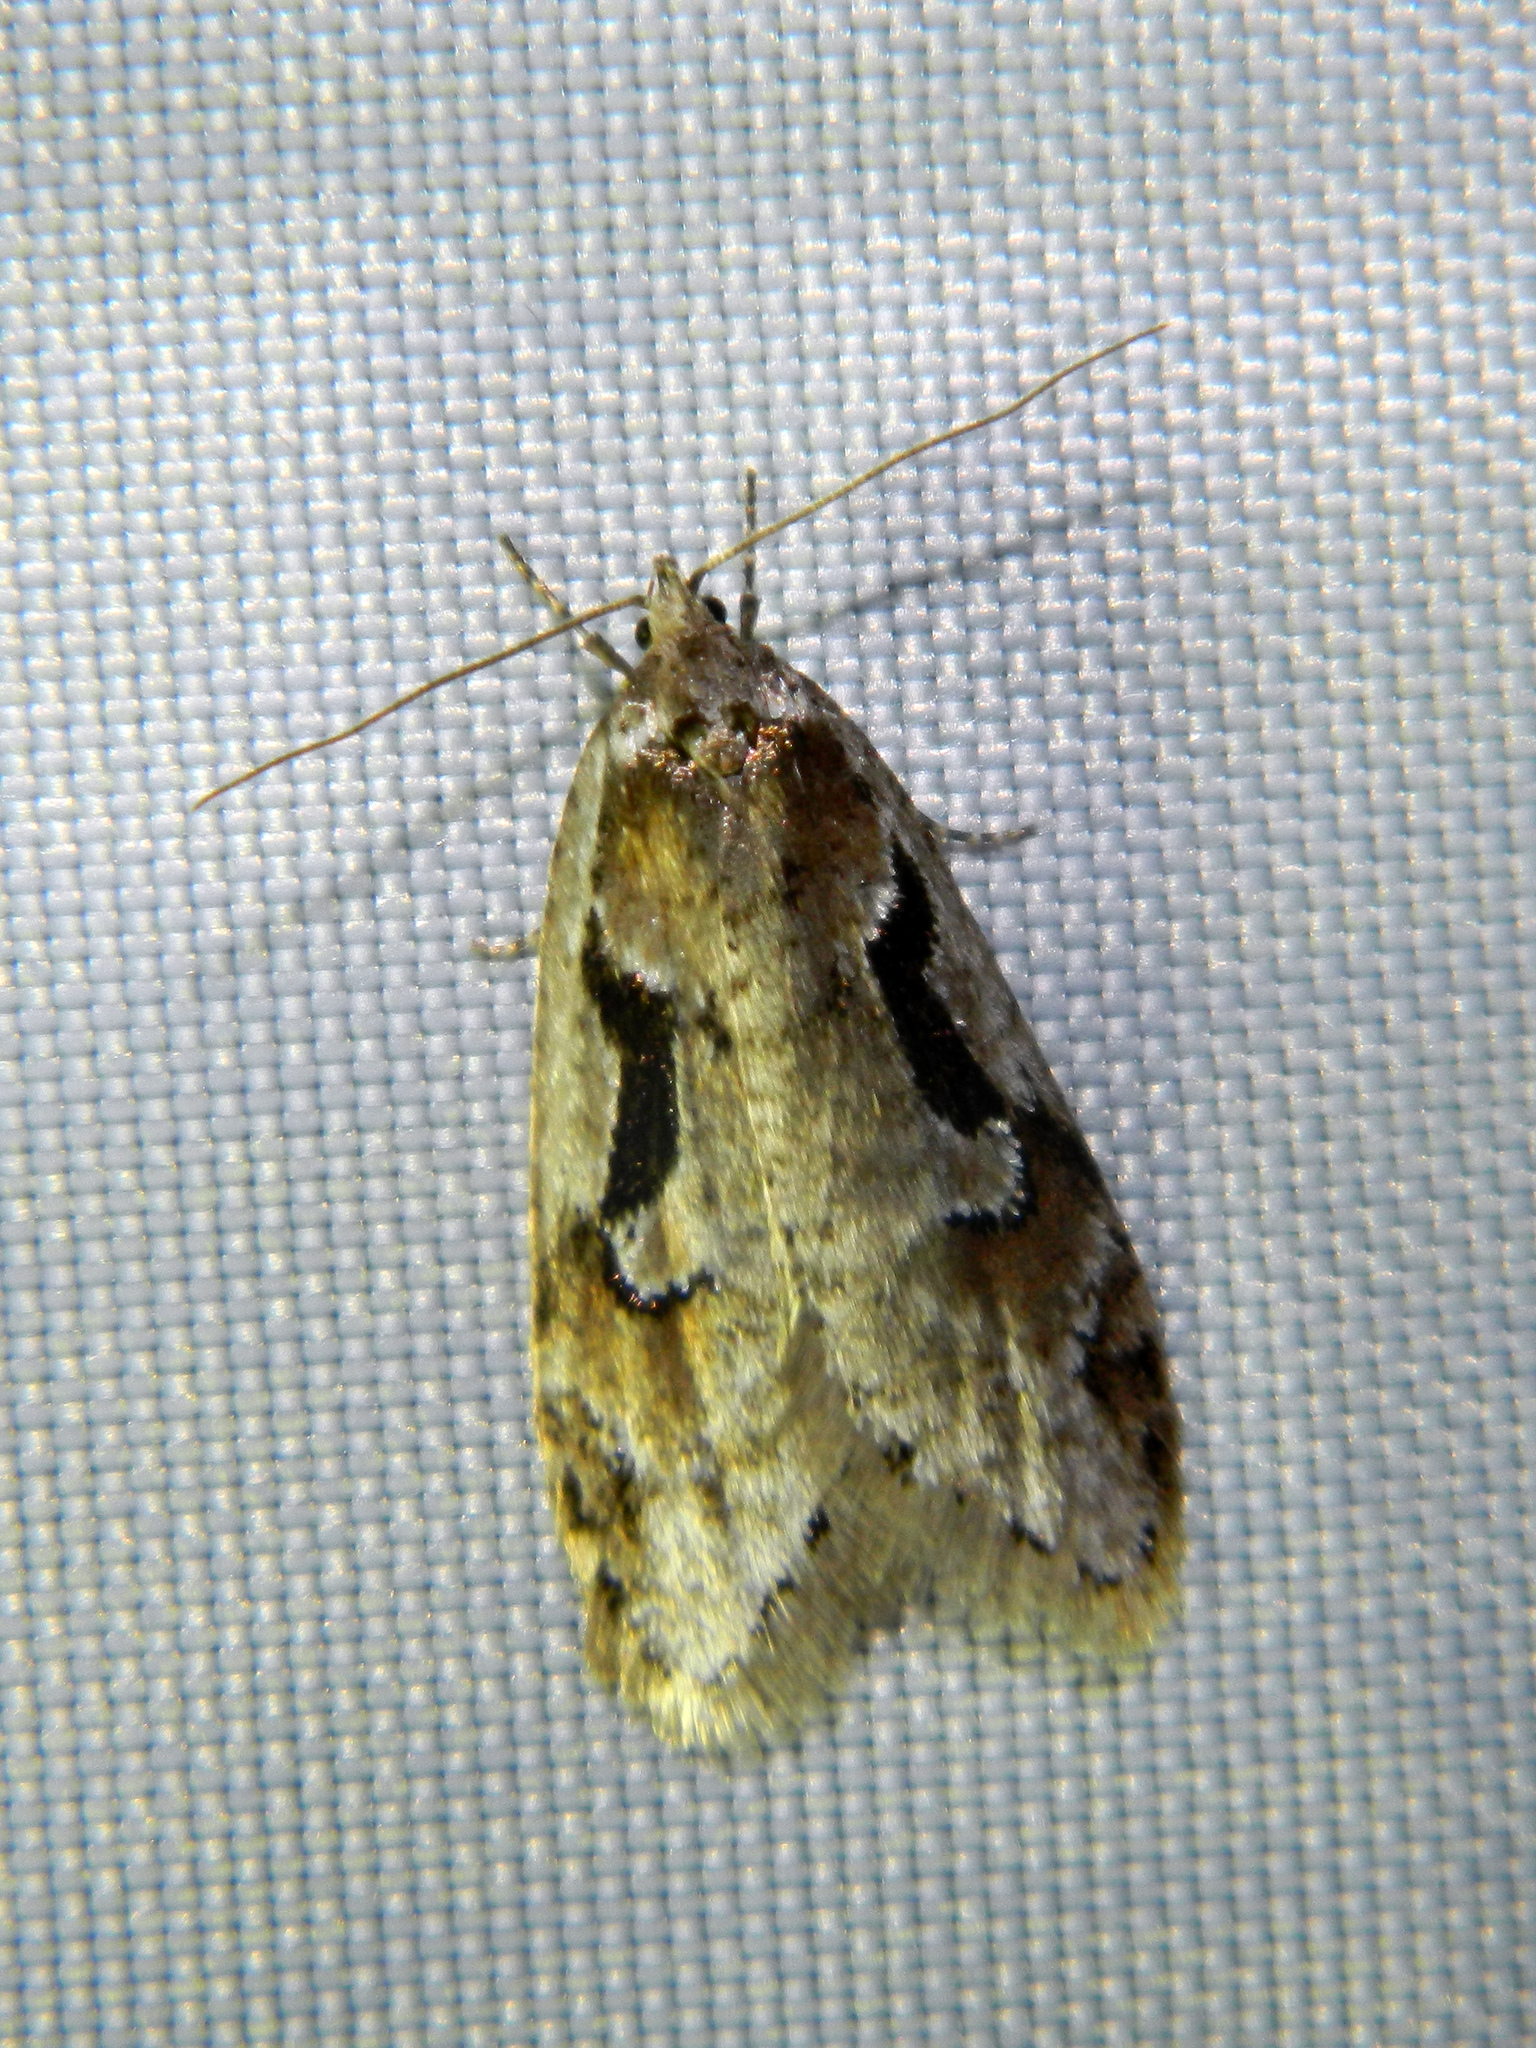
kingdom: Animalia
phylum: Arthropoda
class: Insecta
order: Lepidoptera
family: Depressariidae
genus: Semioscopis
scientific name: Semioscopis merriccella
